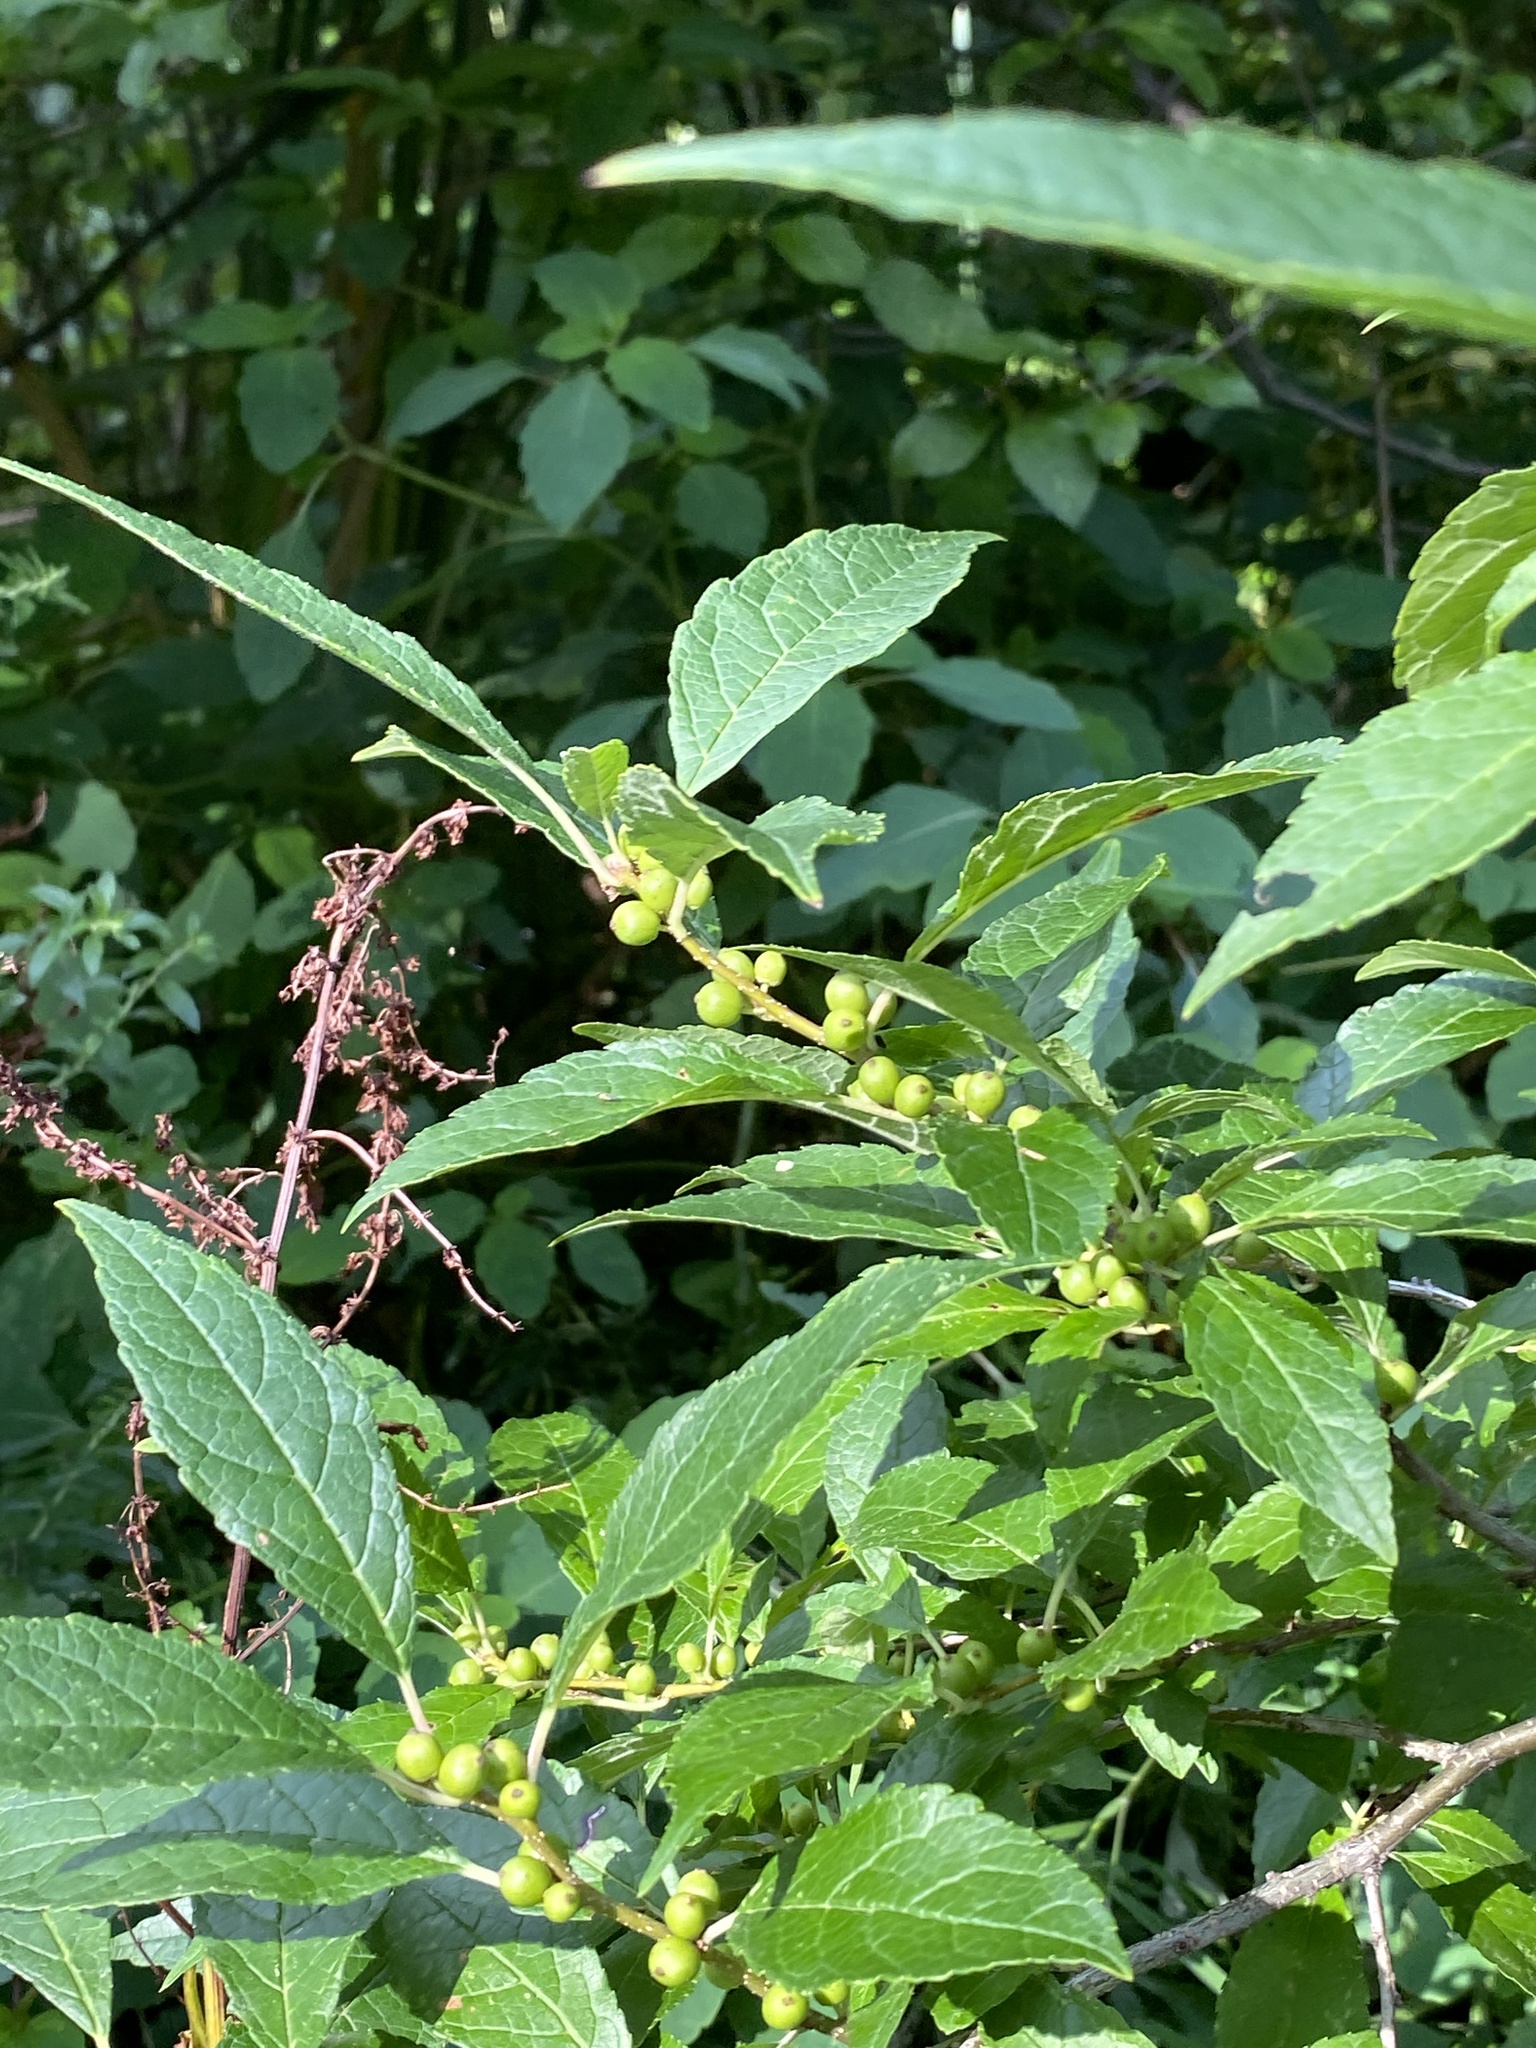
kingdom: Plantae
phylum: Tracheophyta
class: Magnoliopsida
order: Aquifoliales
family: Aquifoliaceae
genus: Ilex
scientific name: Ilex verticillata
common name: Virginia winterberry
